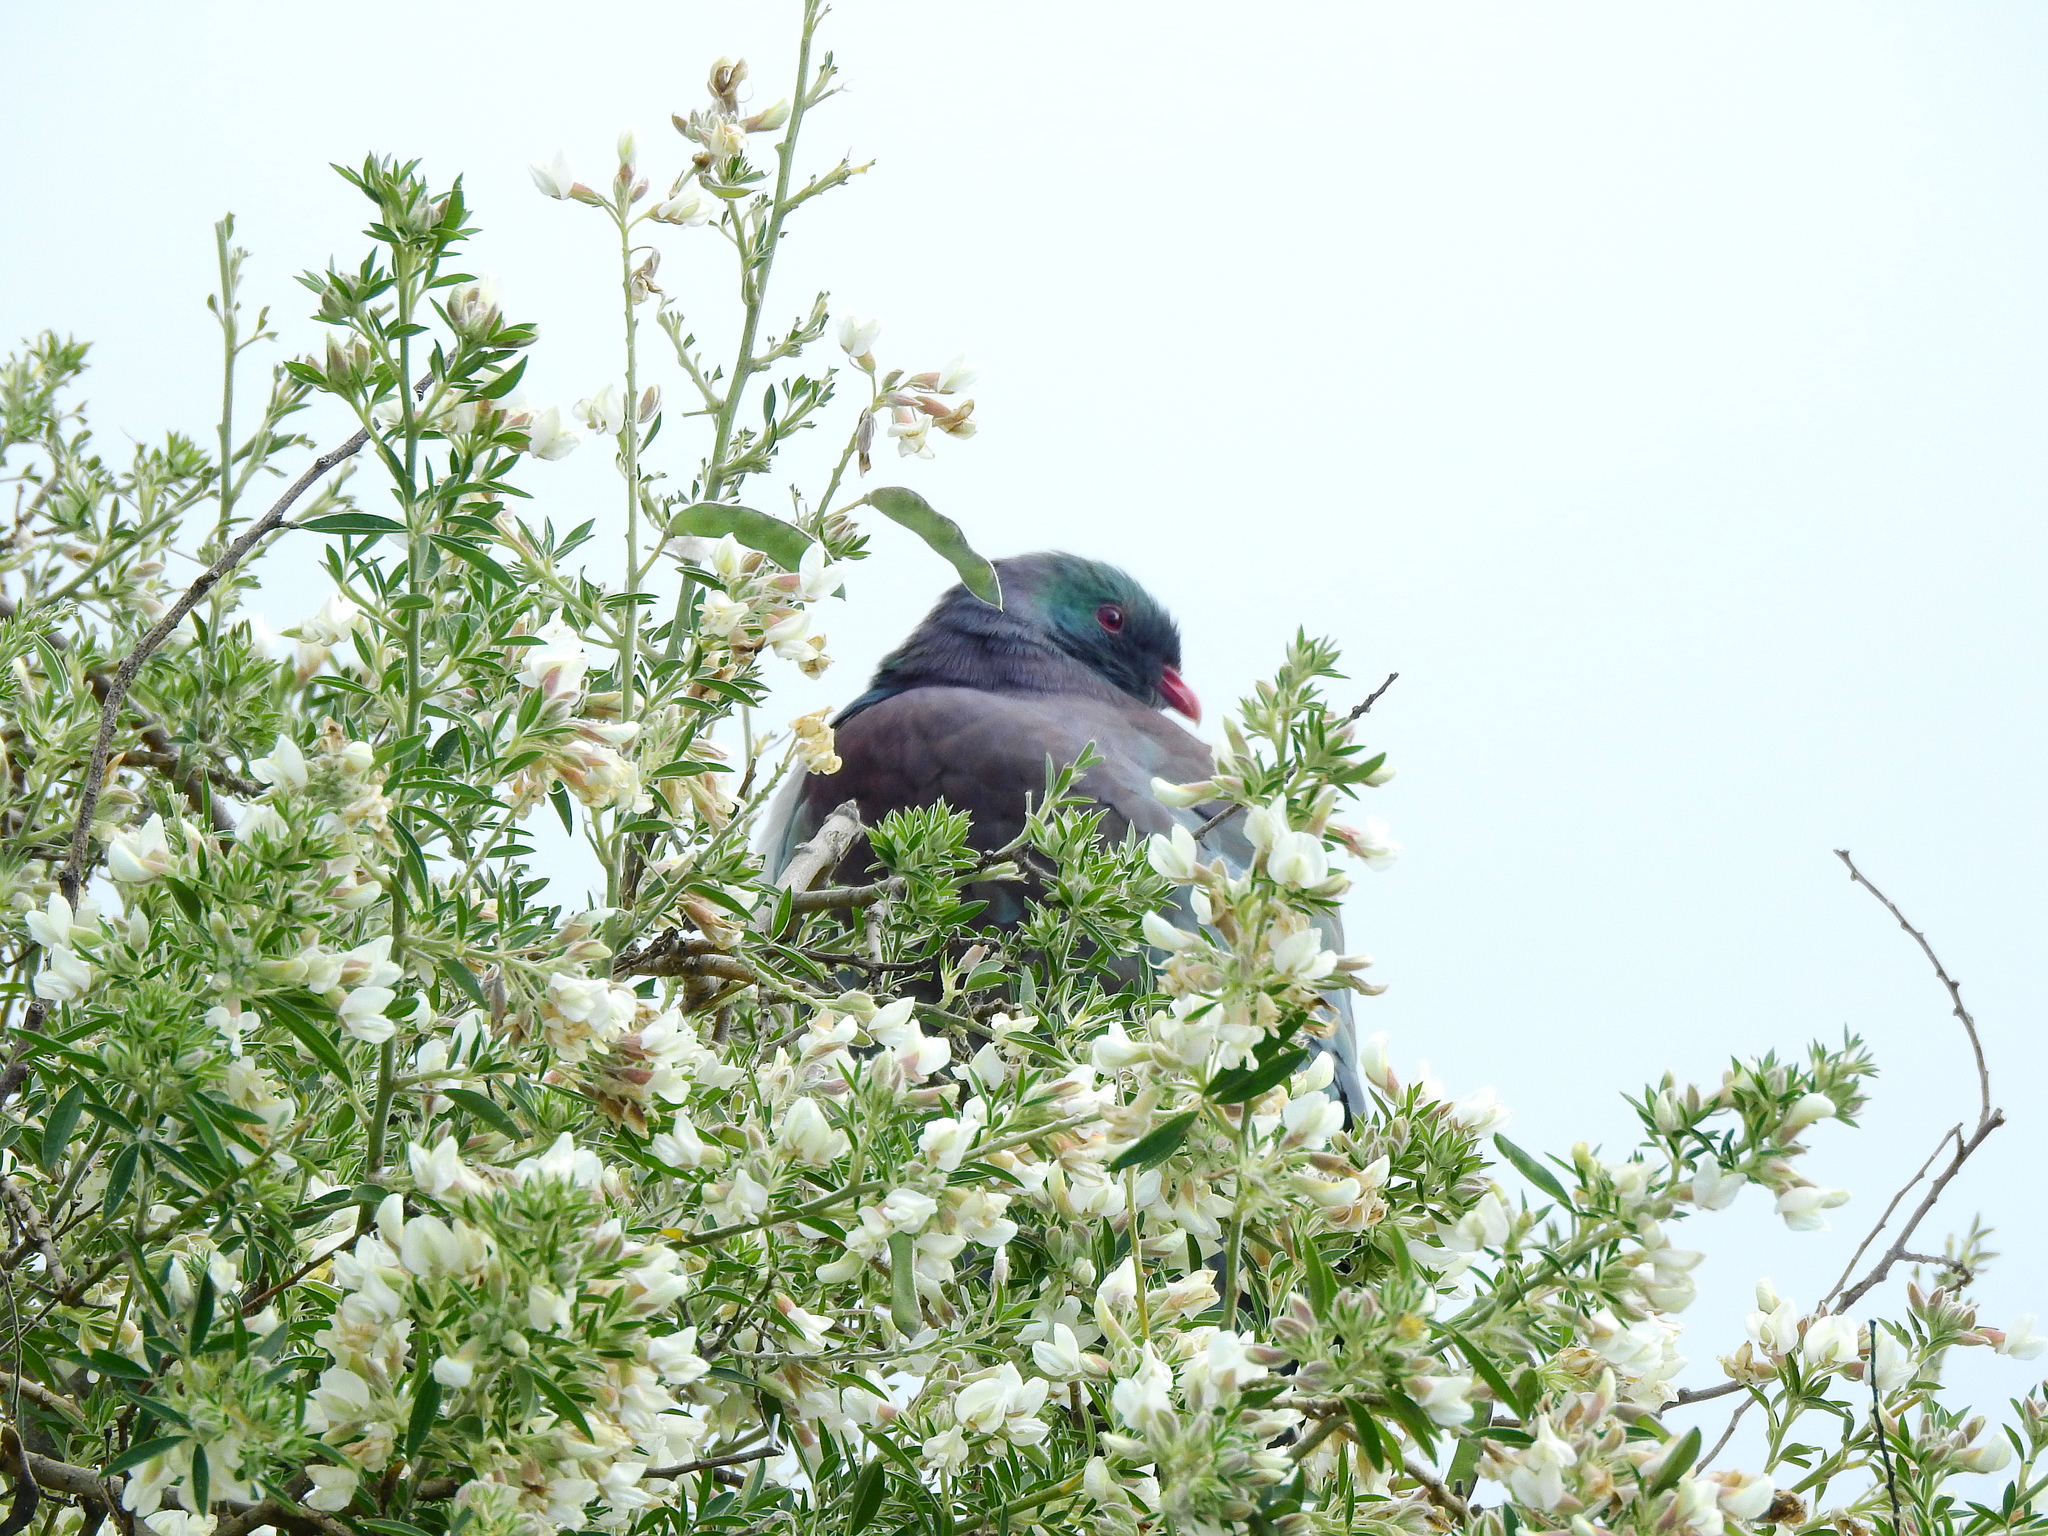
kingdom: Animalia
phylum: Chordata
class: Aves
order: Columbiformes
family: Columbidae
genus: Hemiphaga
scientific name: Hemiphaga novaeseelandiae
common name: New zealand pigeon
